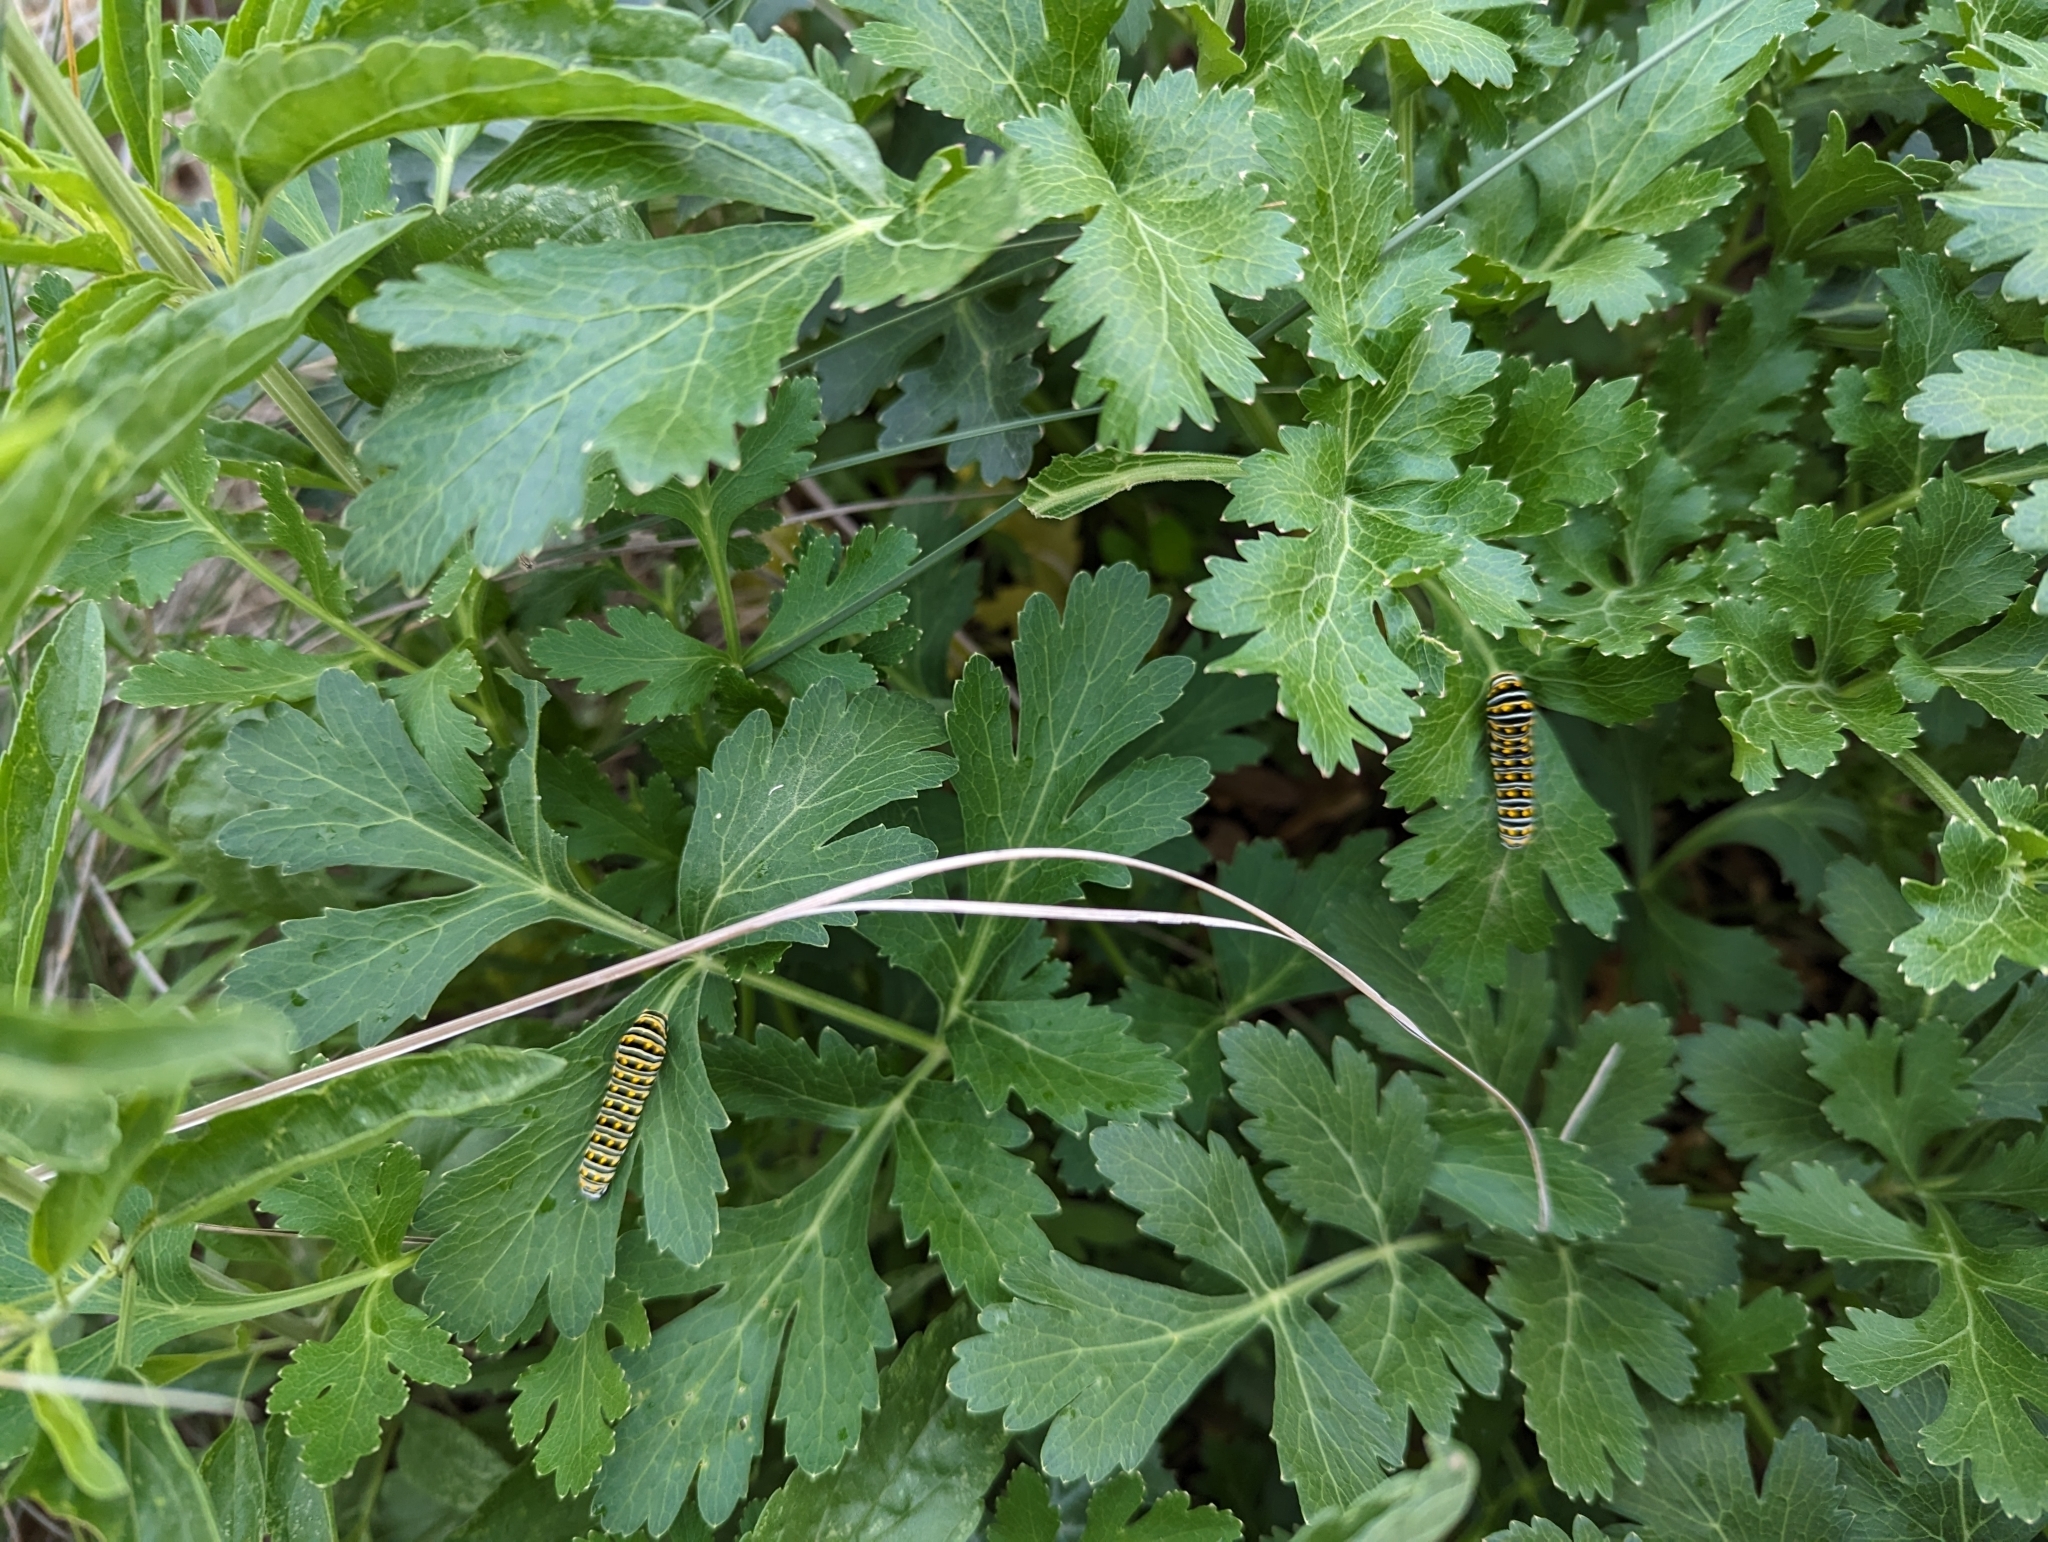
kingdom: Animalia
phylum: Arthropoda
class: Insecta
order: Lepidoptera
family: Papilionidae
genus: Papilio
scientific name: Papilio polyxenes
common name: Black swallowtail
